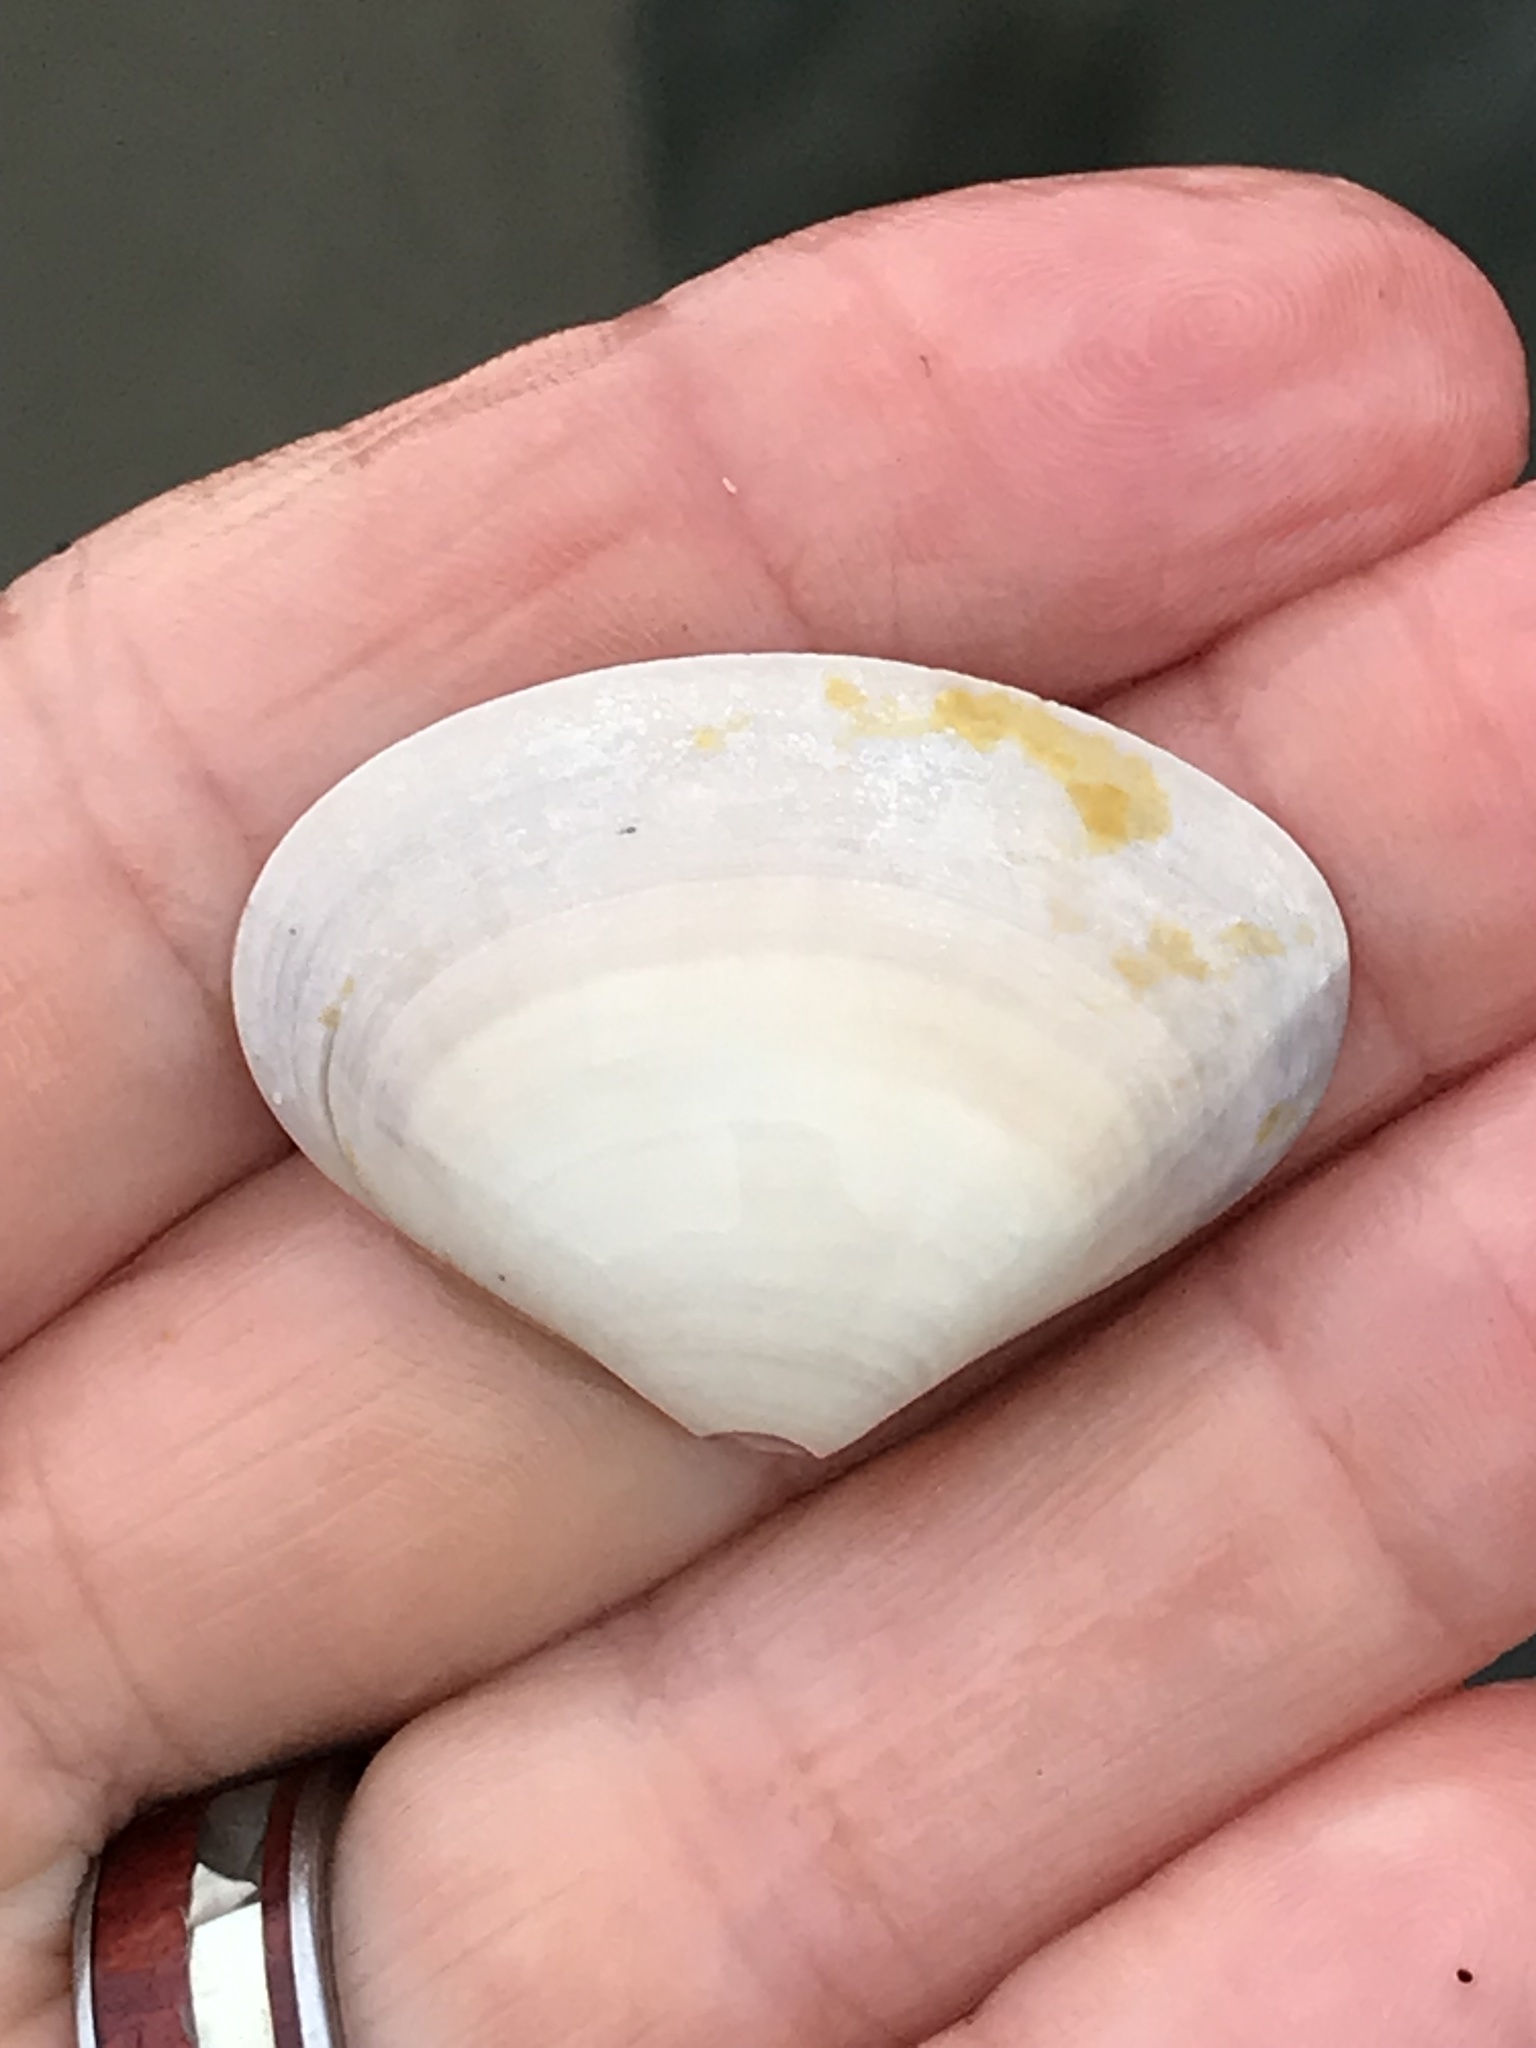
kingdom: Animalia
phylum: Mollusca
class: Bivalvia
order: Venerida
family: Veneridae
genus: Tivela
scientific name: Tivela stultorum
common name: Pismo clam
